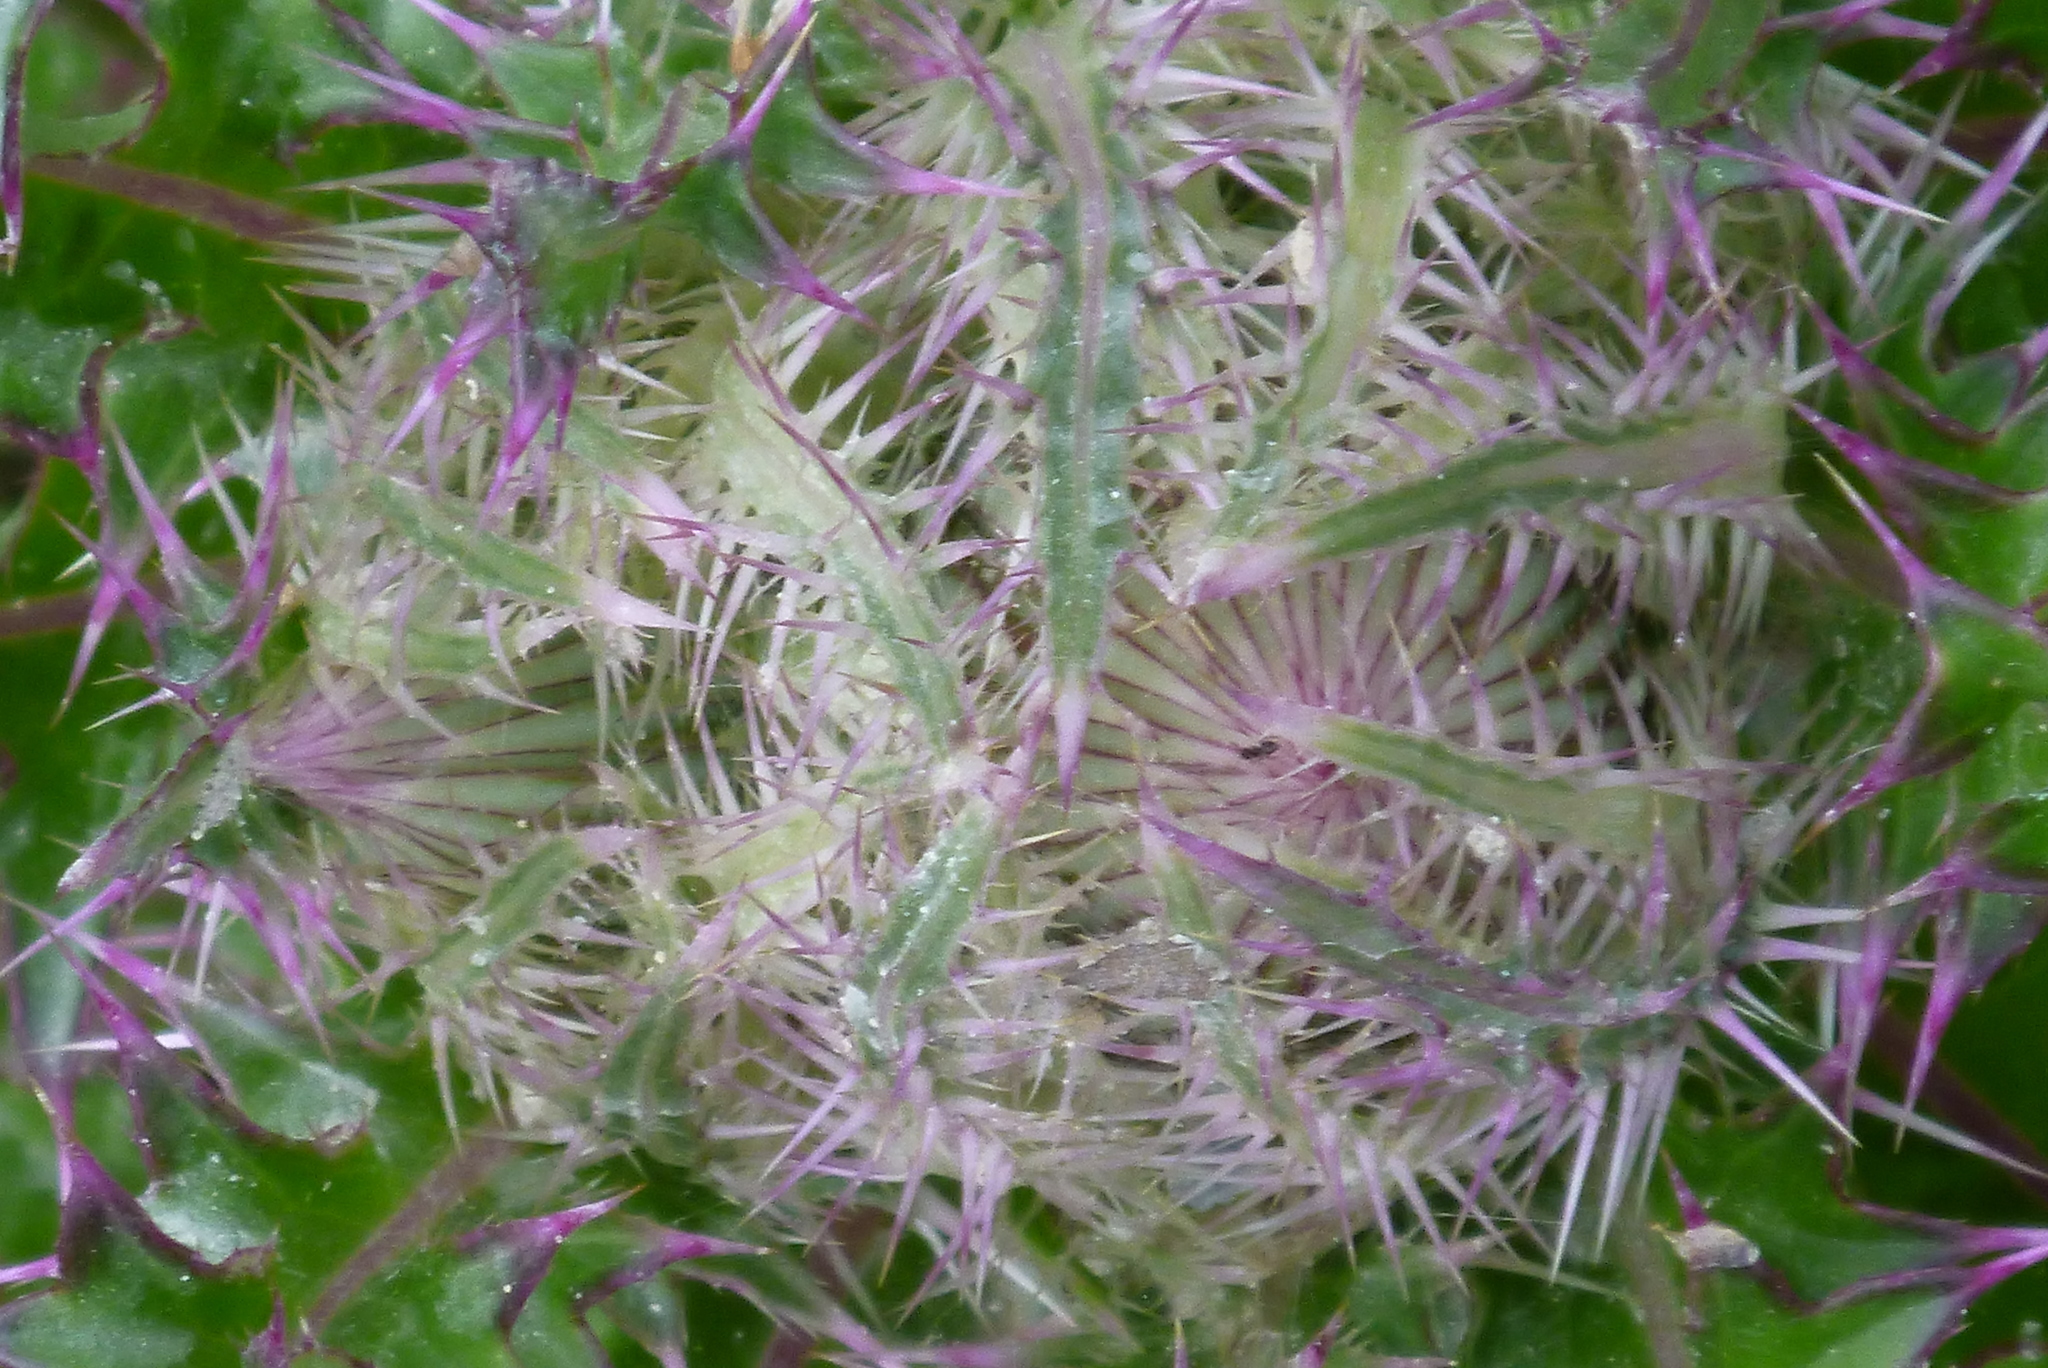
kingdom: Plantae
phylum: Tracheophyta
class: Magnoliopsida
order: Asterales
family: Asteraceae
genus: Cirsium
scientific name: Cirsium horridulum
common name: Bristly thistle
